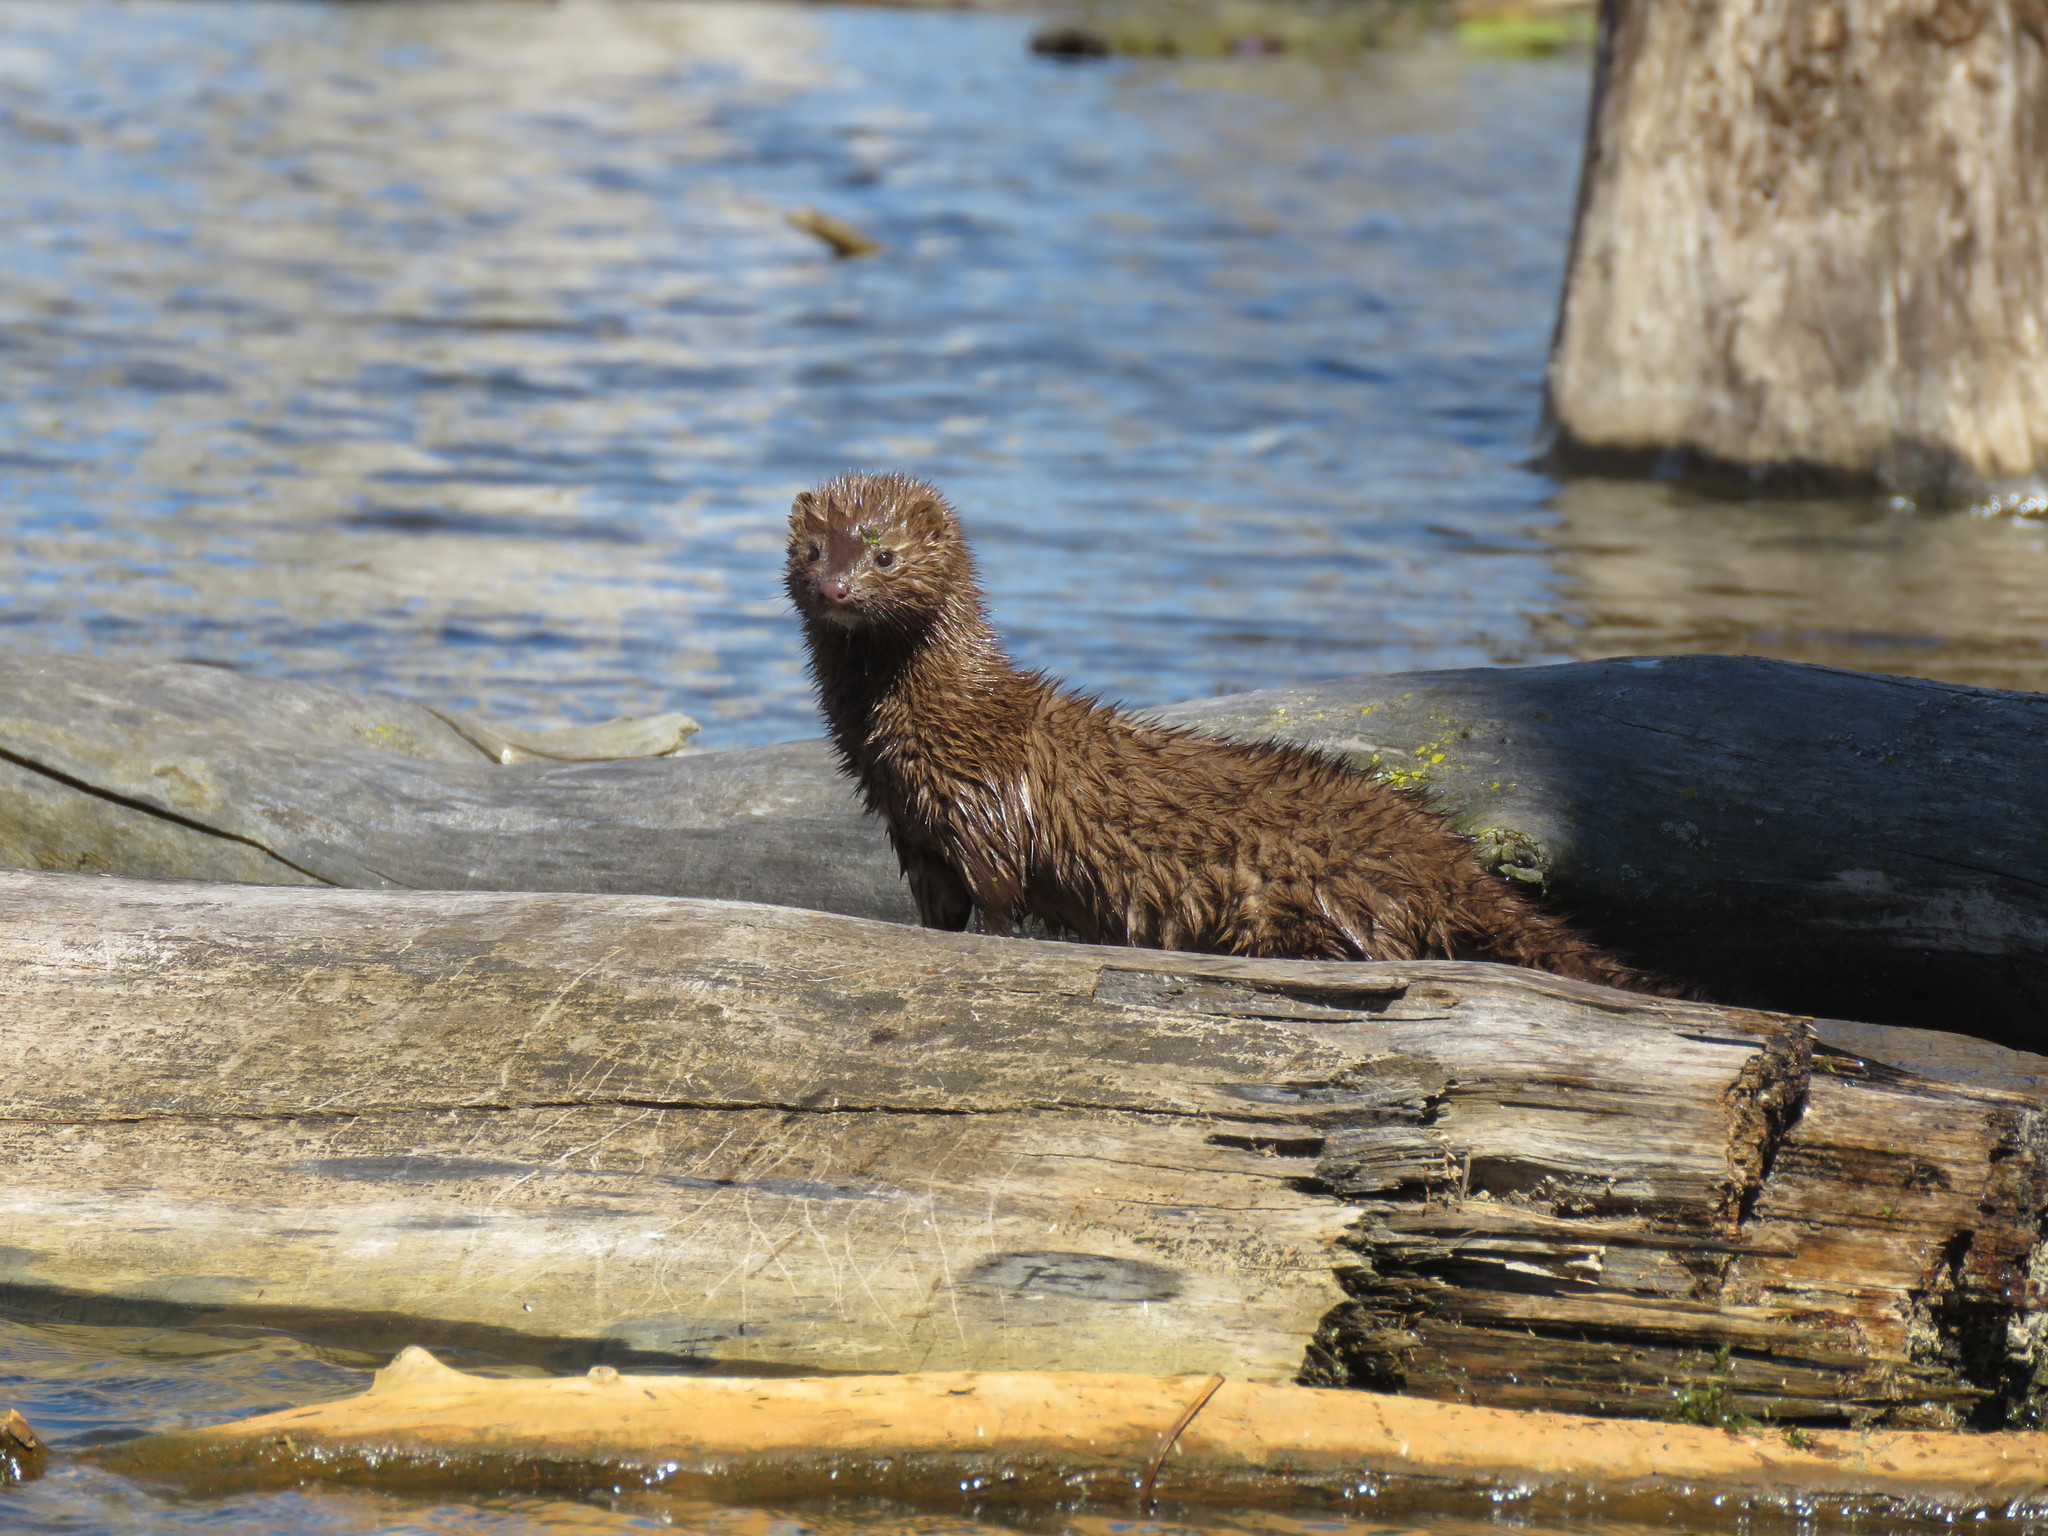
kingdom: Animalia
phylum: Chordata
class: Mammalia
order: Carnivora
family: Mustelidae
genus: Mustela
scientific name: Mustela
